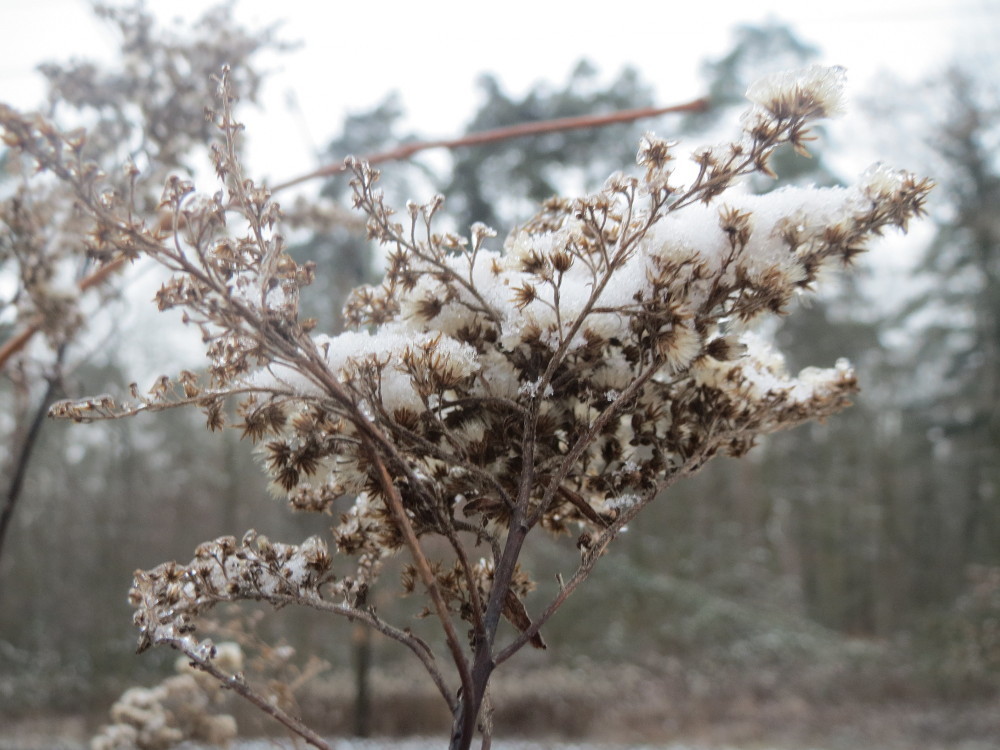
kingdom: Plantae
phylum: Tracheophyta
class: Magnoliopsida
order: Asterales
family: Asteraceae
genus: Solidago
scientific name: Solidago
